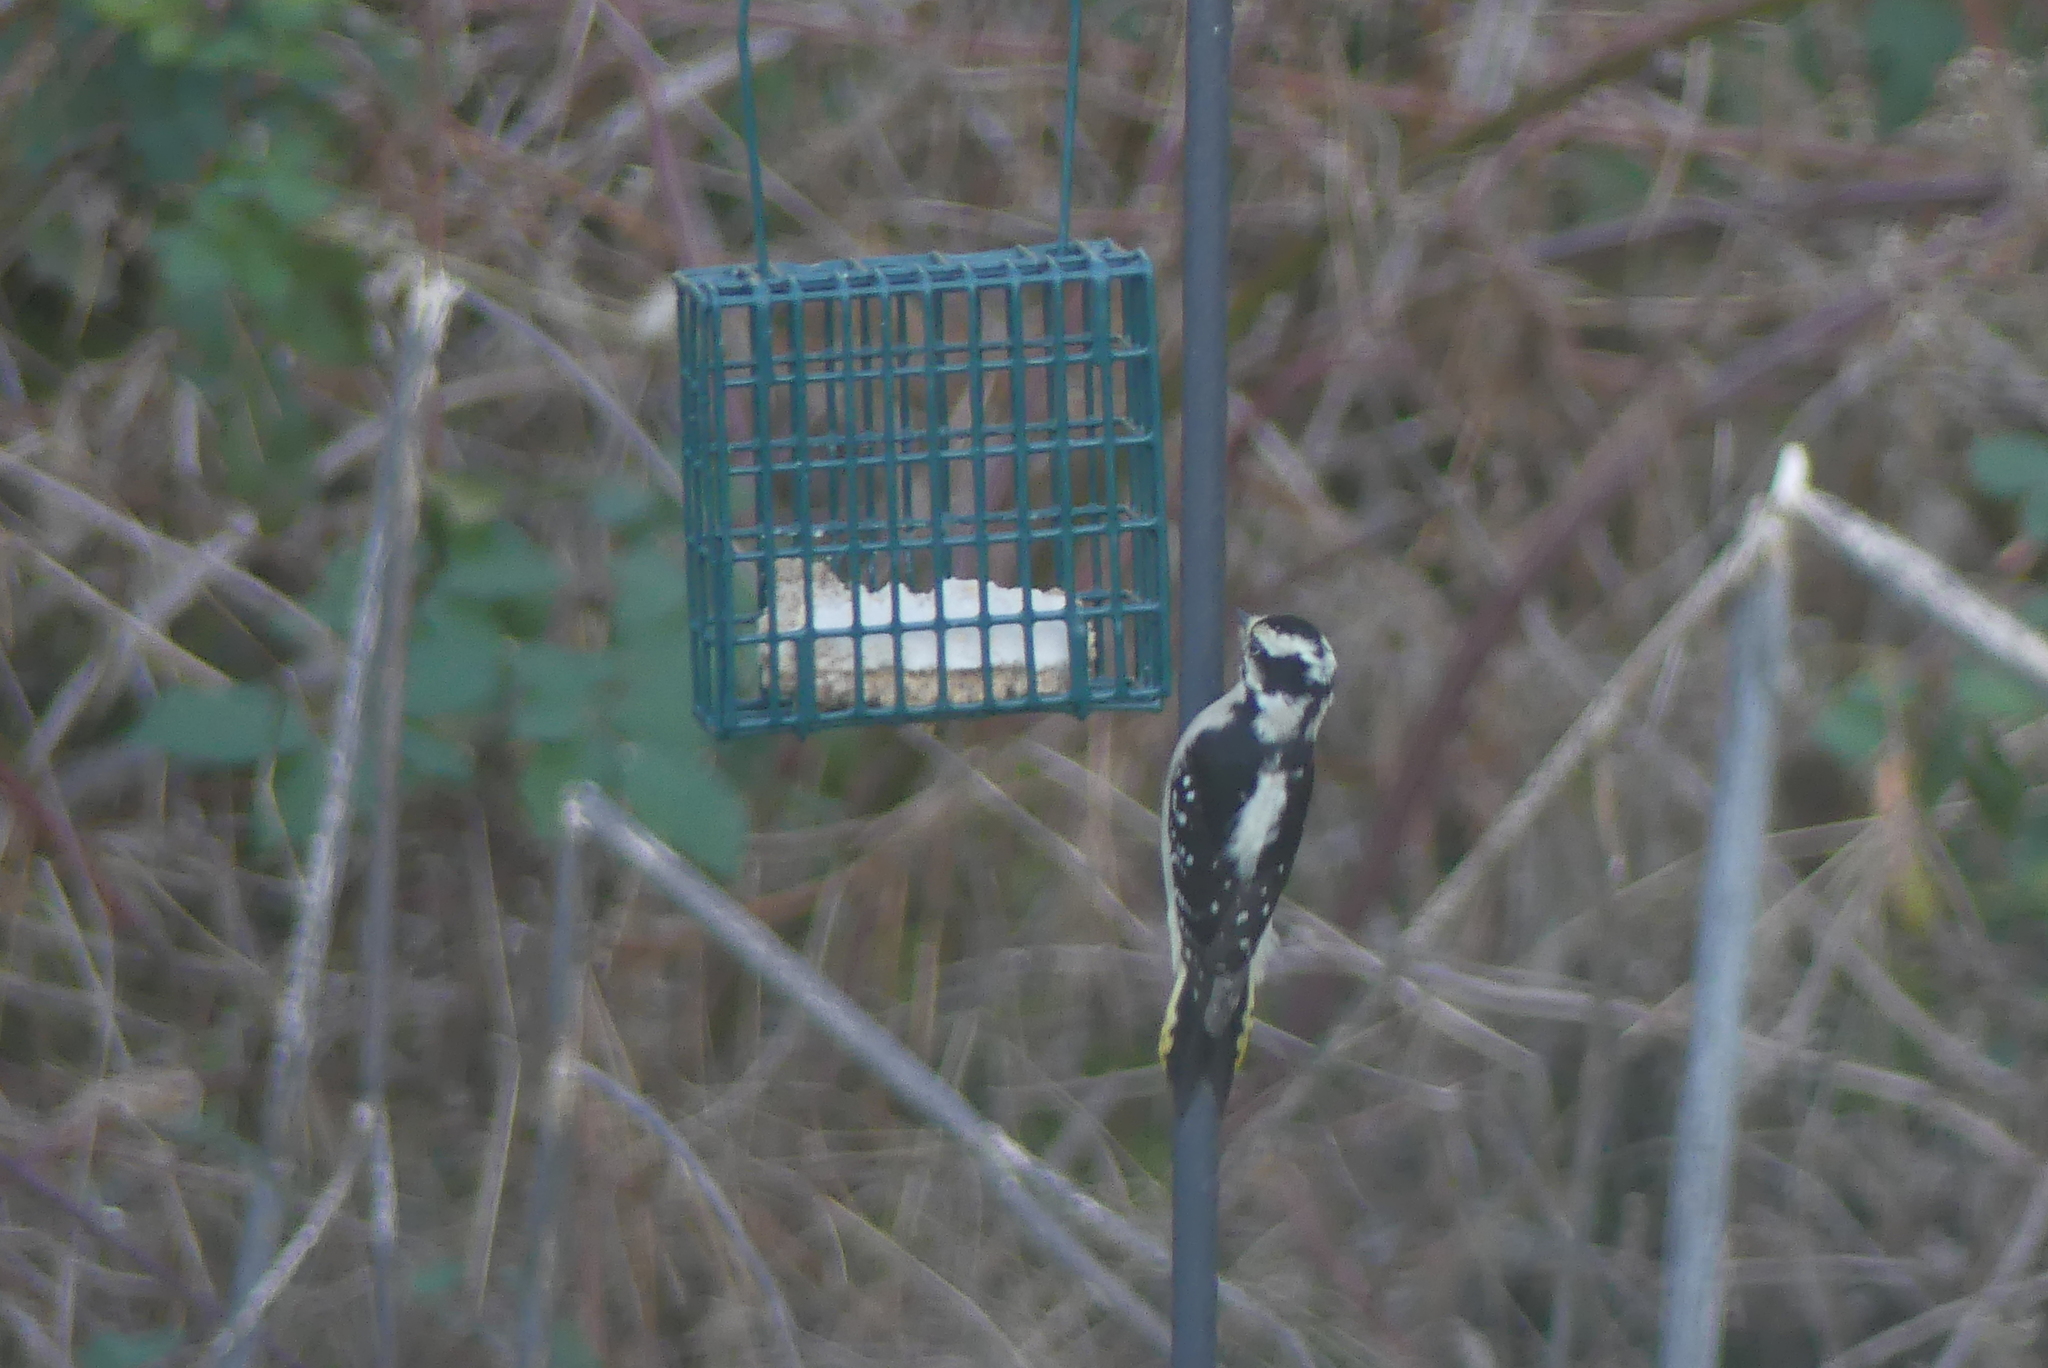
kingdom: Animalia
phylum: Chordata
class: Aves
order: Piciformes
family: Picidae
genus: Dryobates
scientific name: Dryobates pubescens
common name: Downy woodpecker
